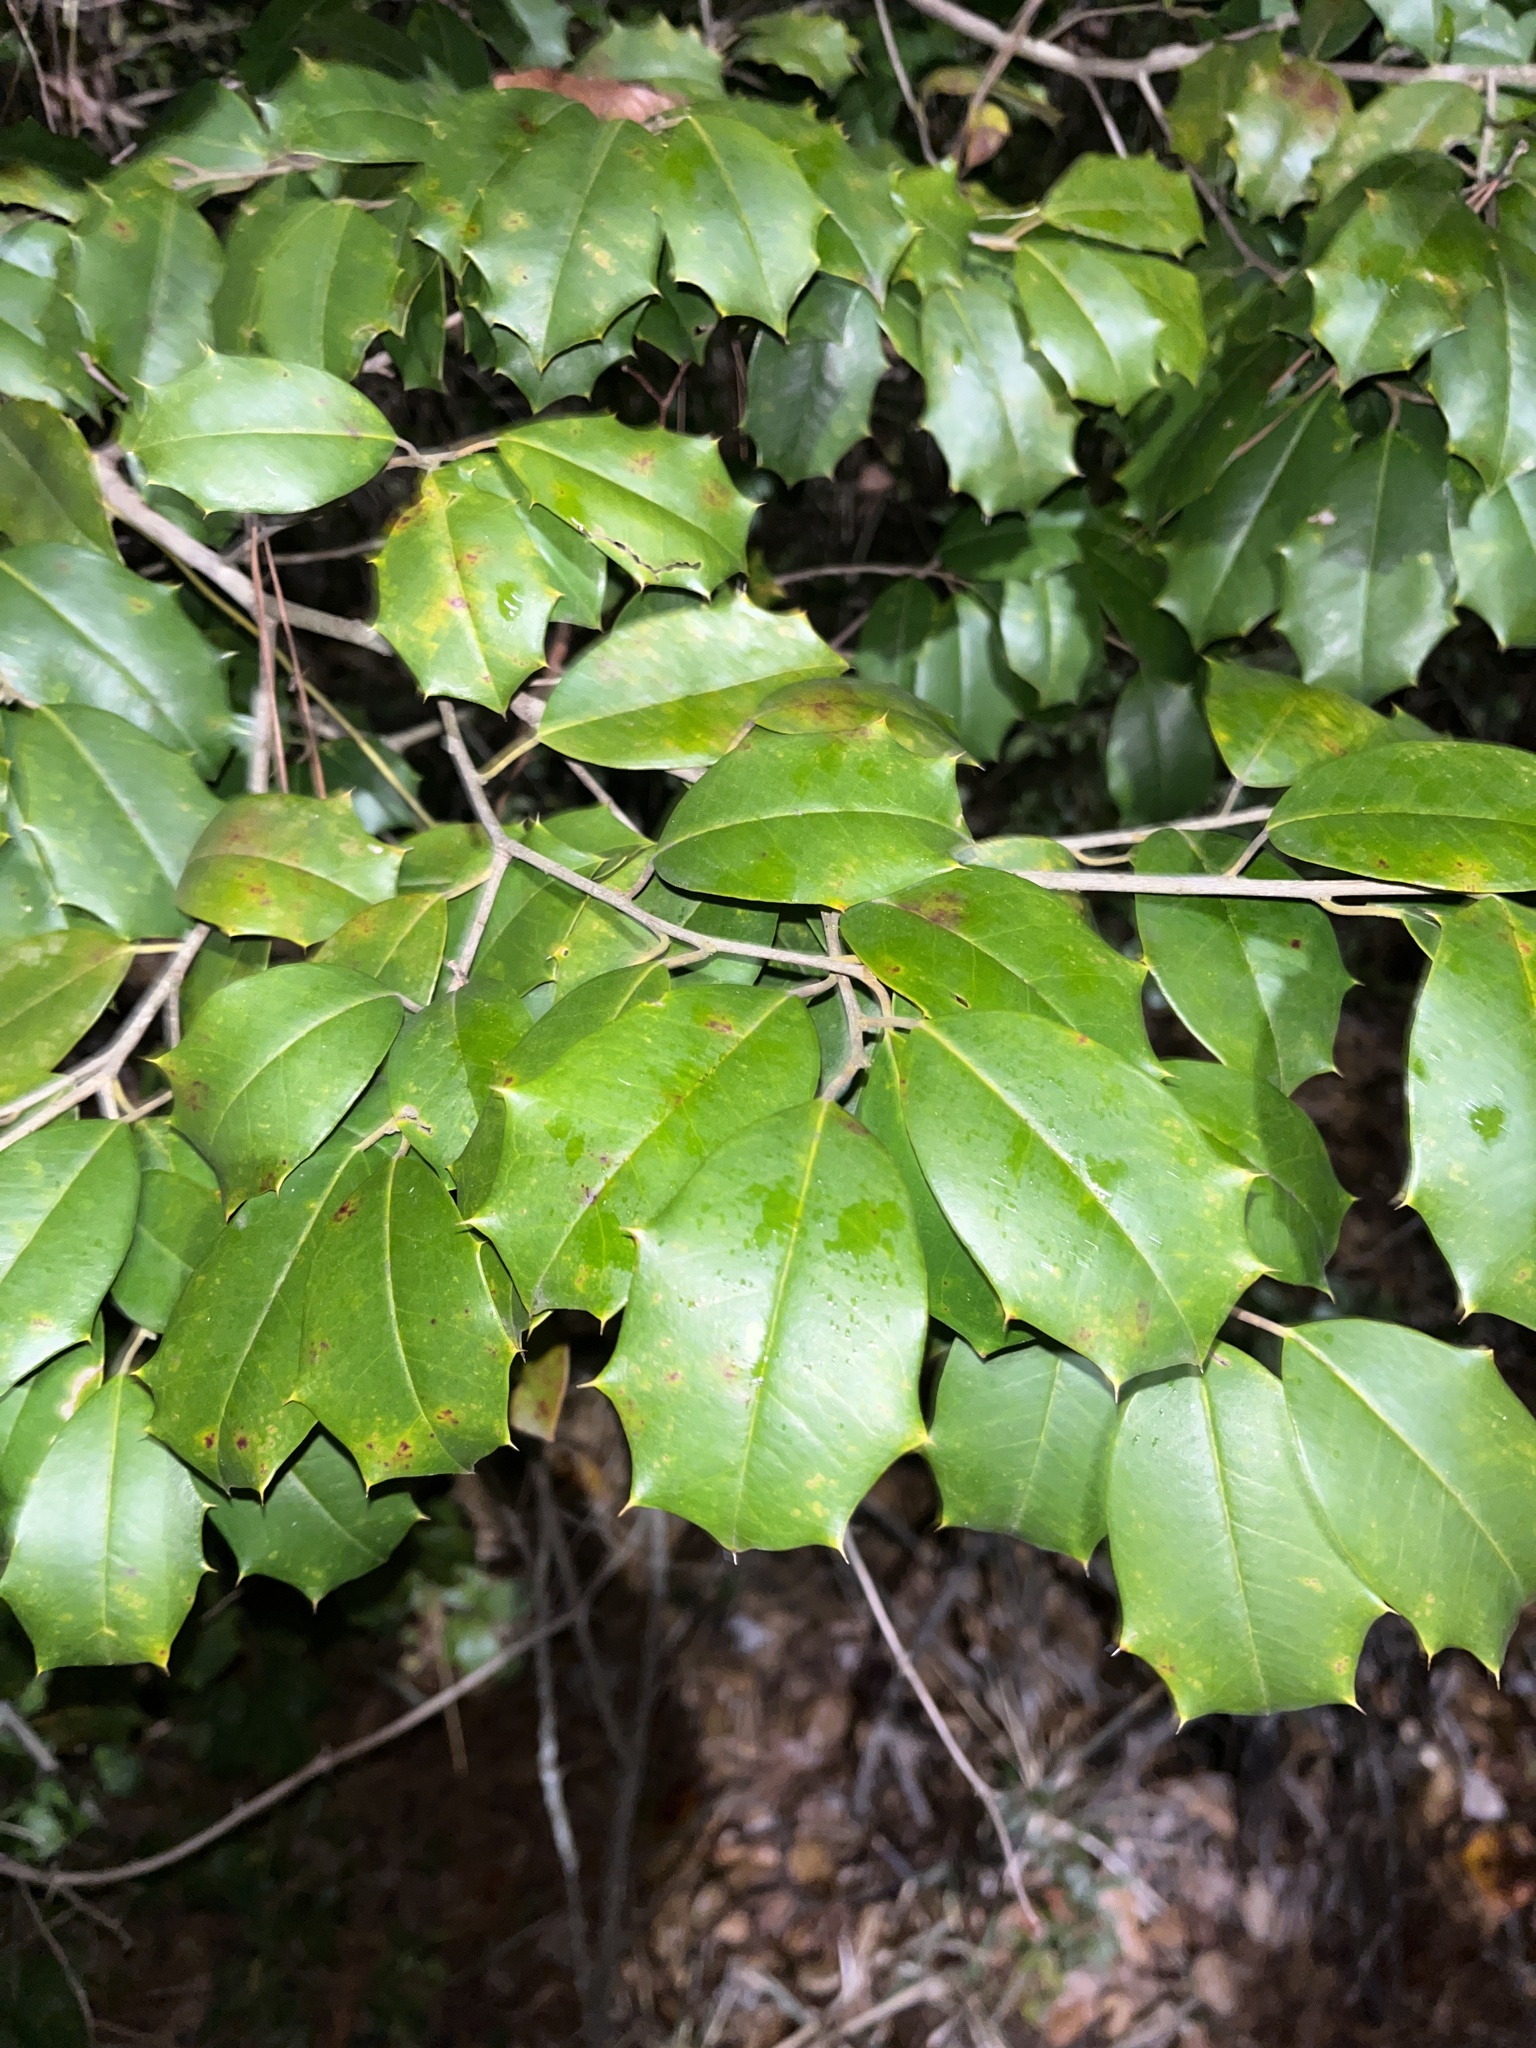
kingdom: Plantae
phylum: Tracheophyta
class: Magnoliopsida
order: Aquifoliales
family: Aquifoliaceae
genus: Ilex
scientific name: Ilex opaca
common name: American holly
